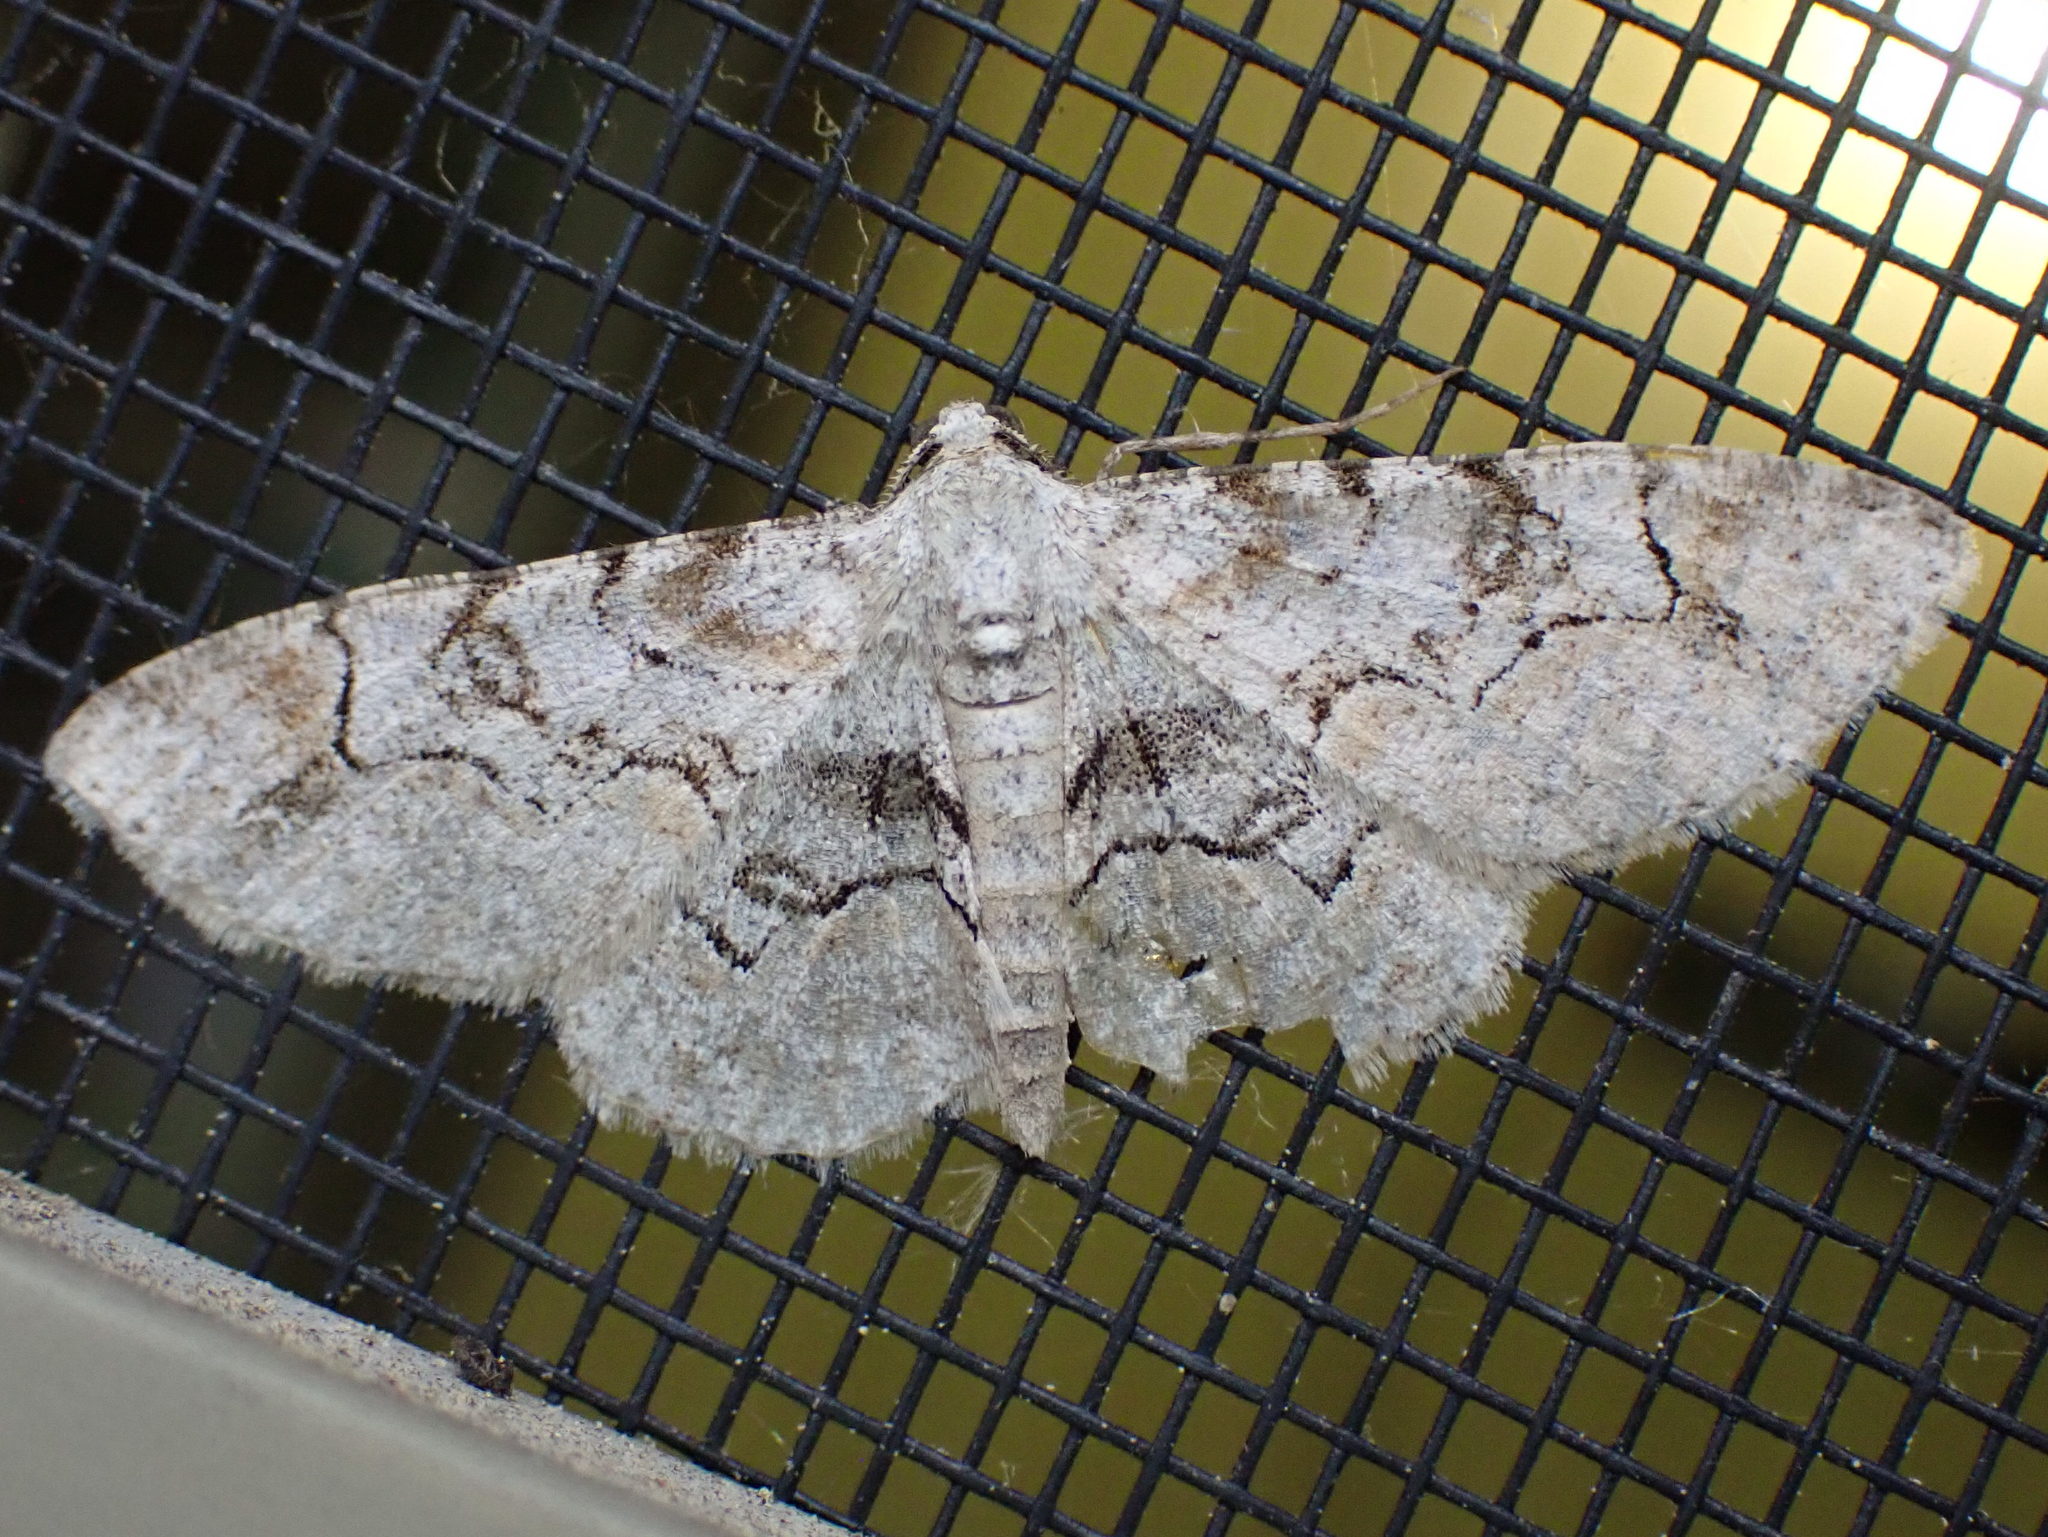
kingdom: Animalia
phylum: Arthropoda
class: Insecta
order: Lepidoptera
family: Geometridae
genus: Iridopsis
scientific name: Iridopsis larvaria
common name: Bent-line gray
